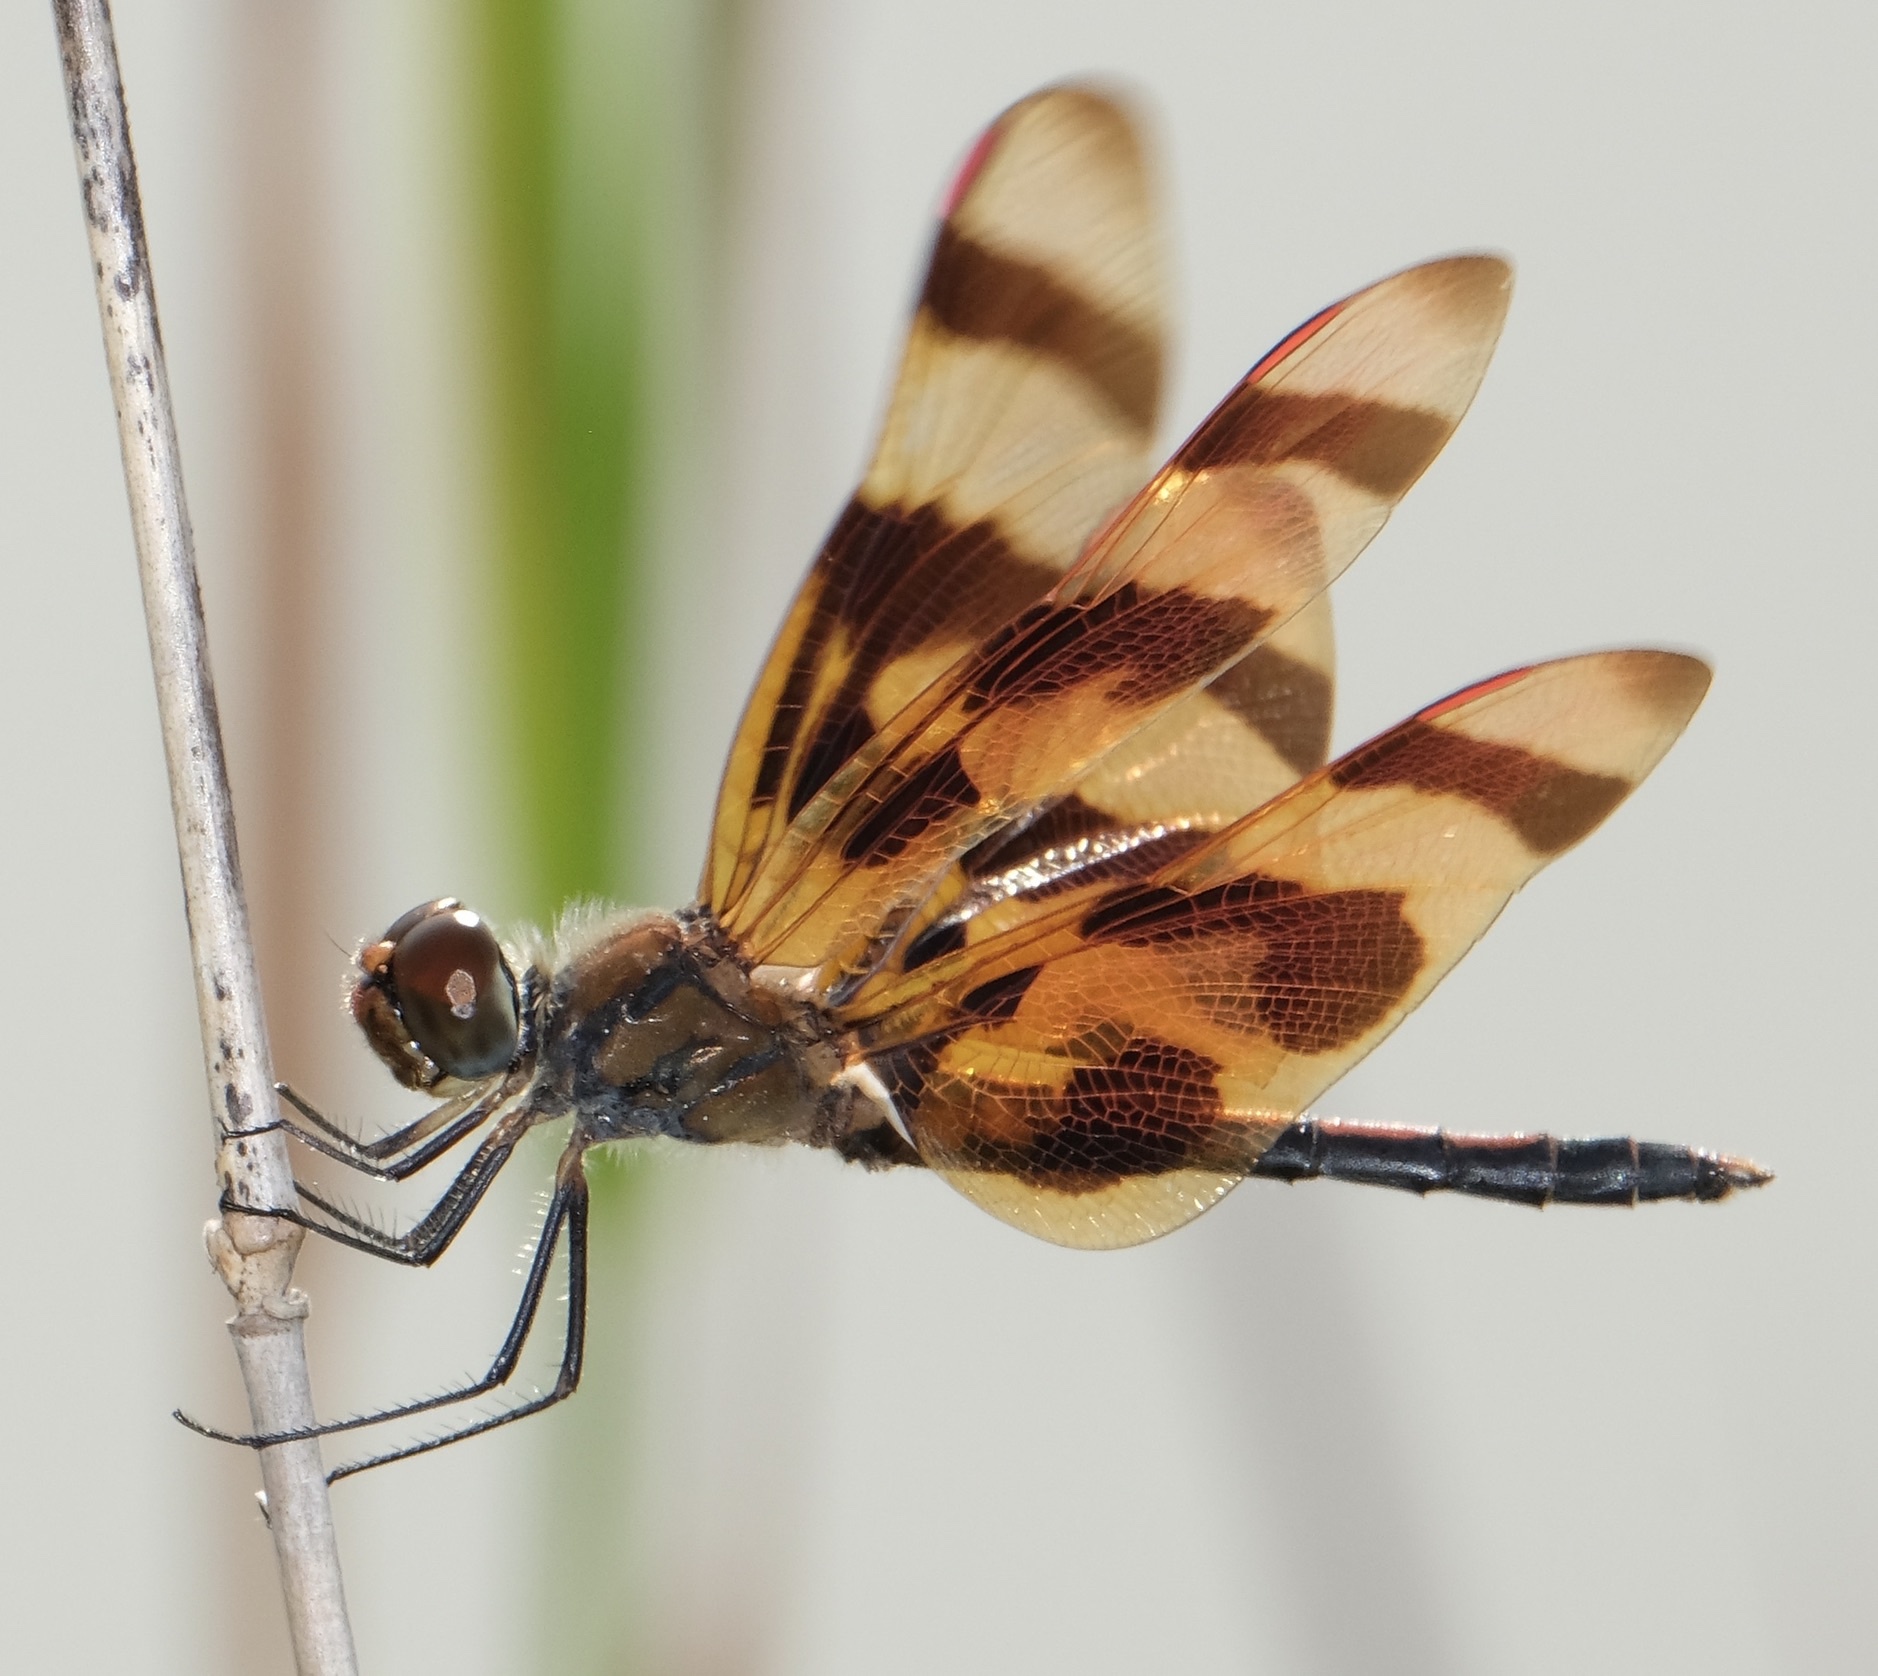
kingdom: Animalia
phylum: Arthropoda
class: Insecta
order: Odonata
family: Libellulidae
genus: Celithemis
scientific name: Celithemis eponina
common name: Halloween pennant
